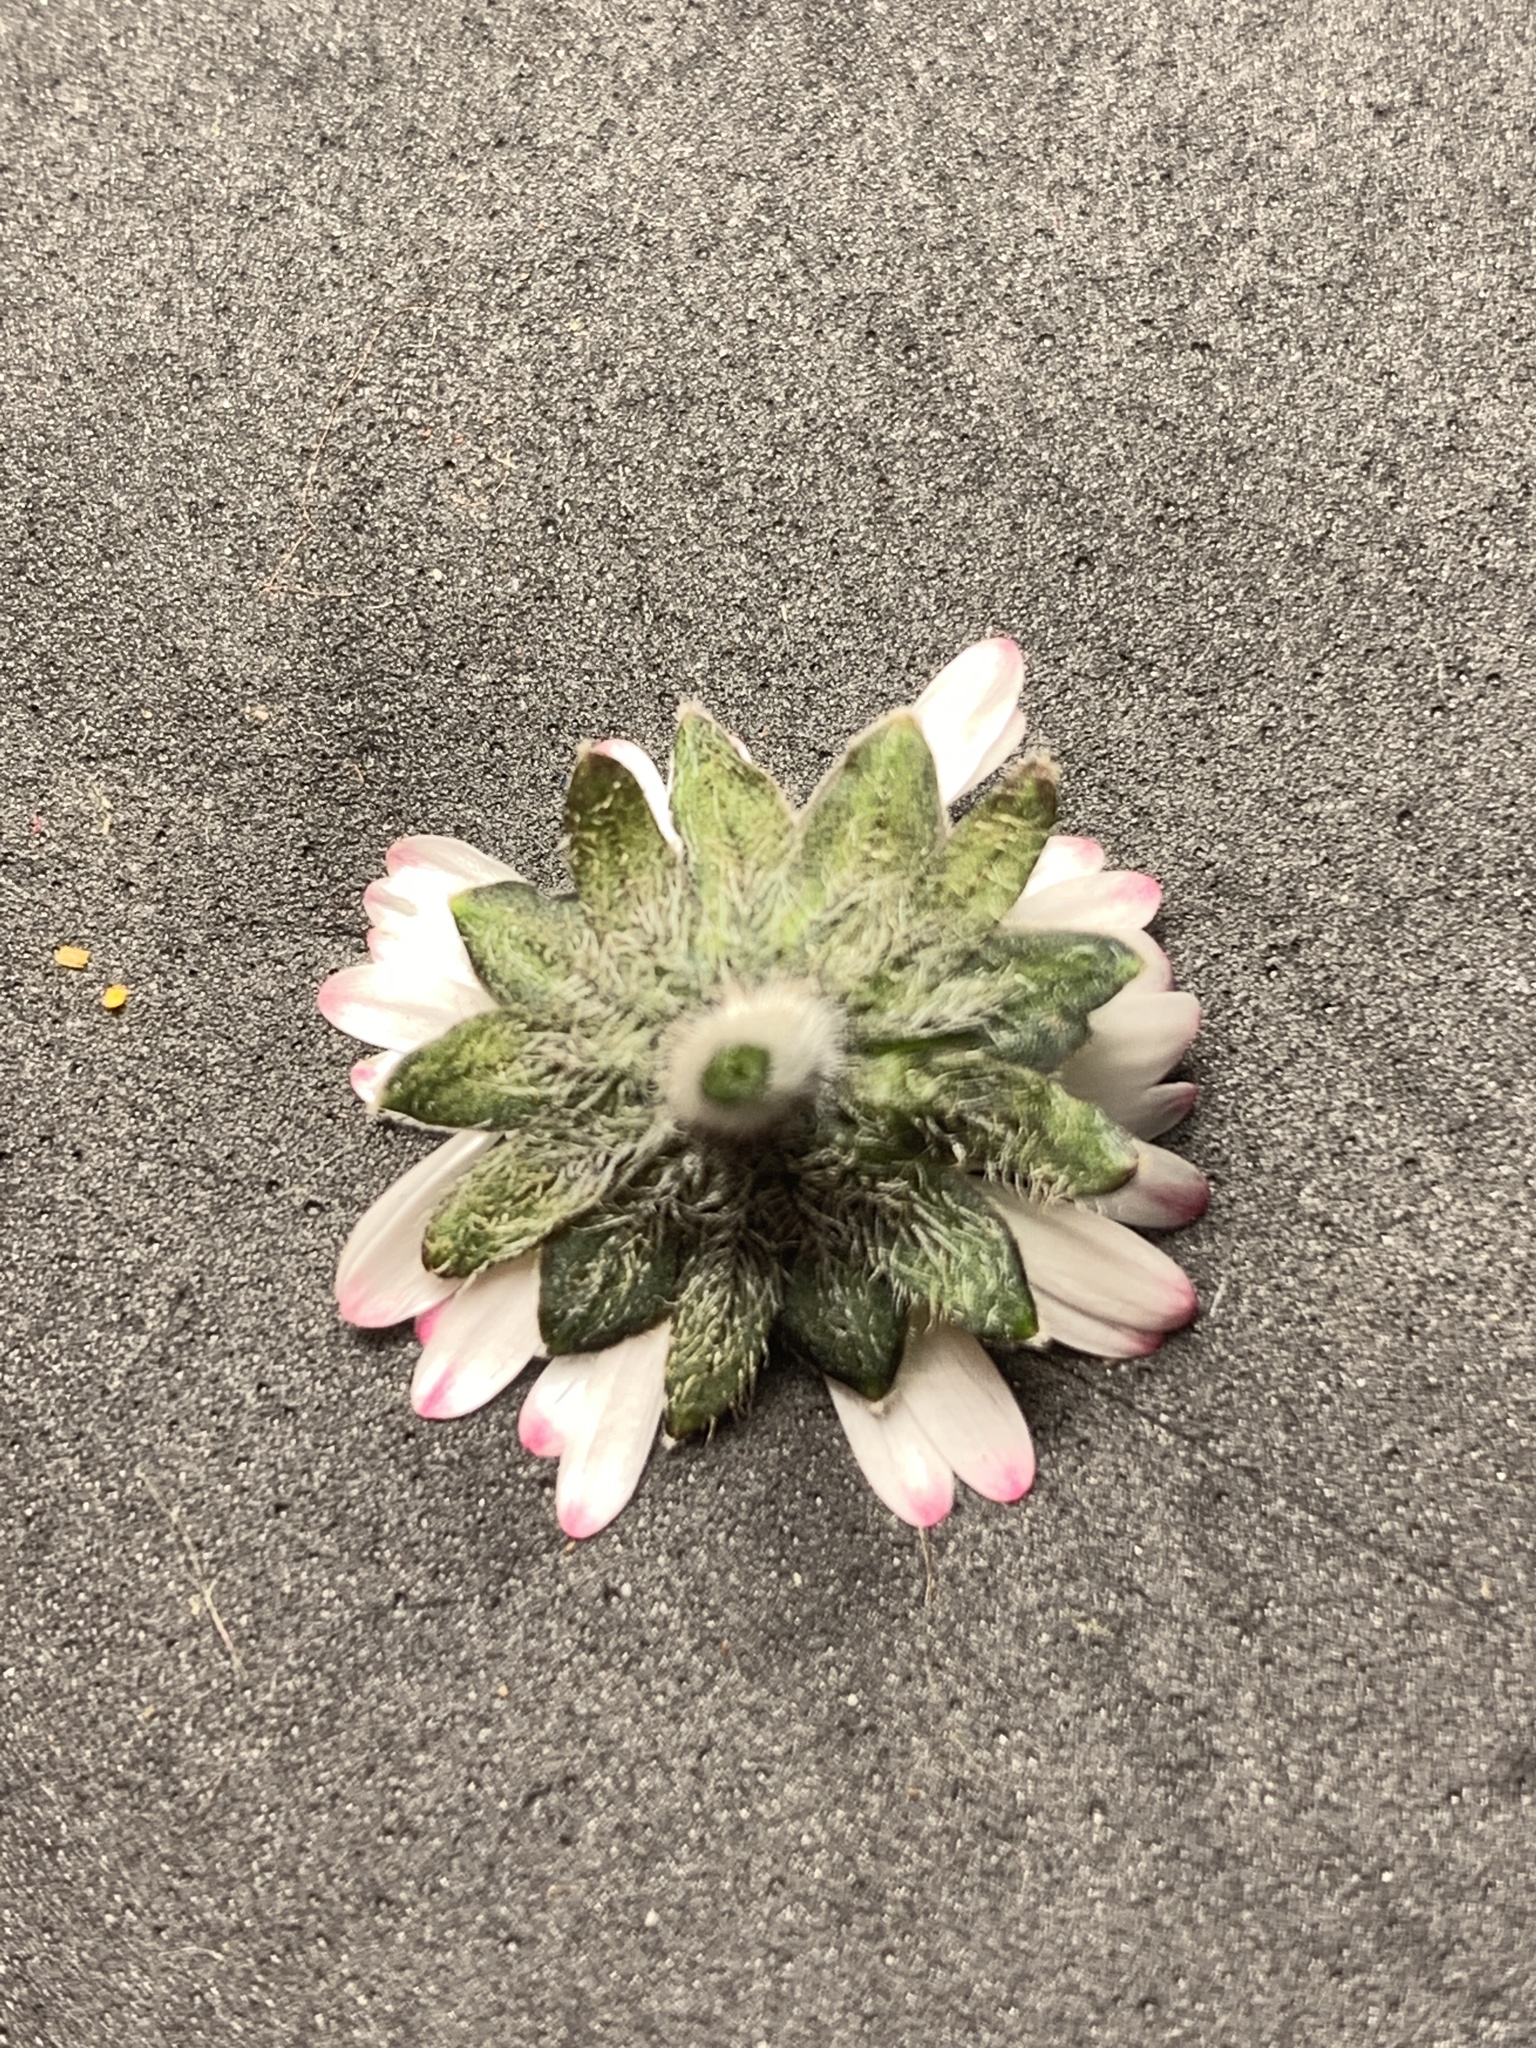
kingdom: Plantae
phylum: Tracheophyta
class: Magnoliopsida
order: Asterales
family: Asteraceae
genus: Bellis
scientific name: Bellis perennis
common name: Lawndaisy
